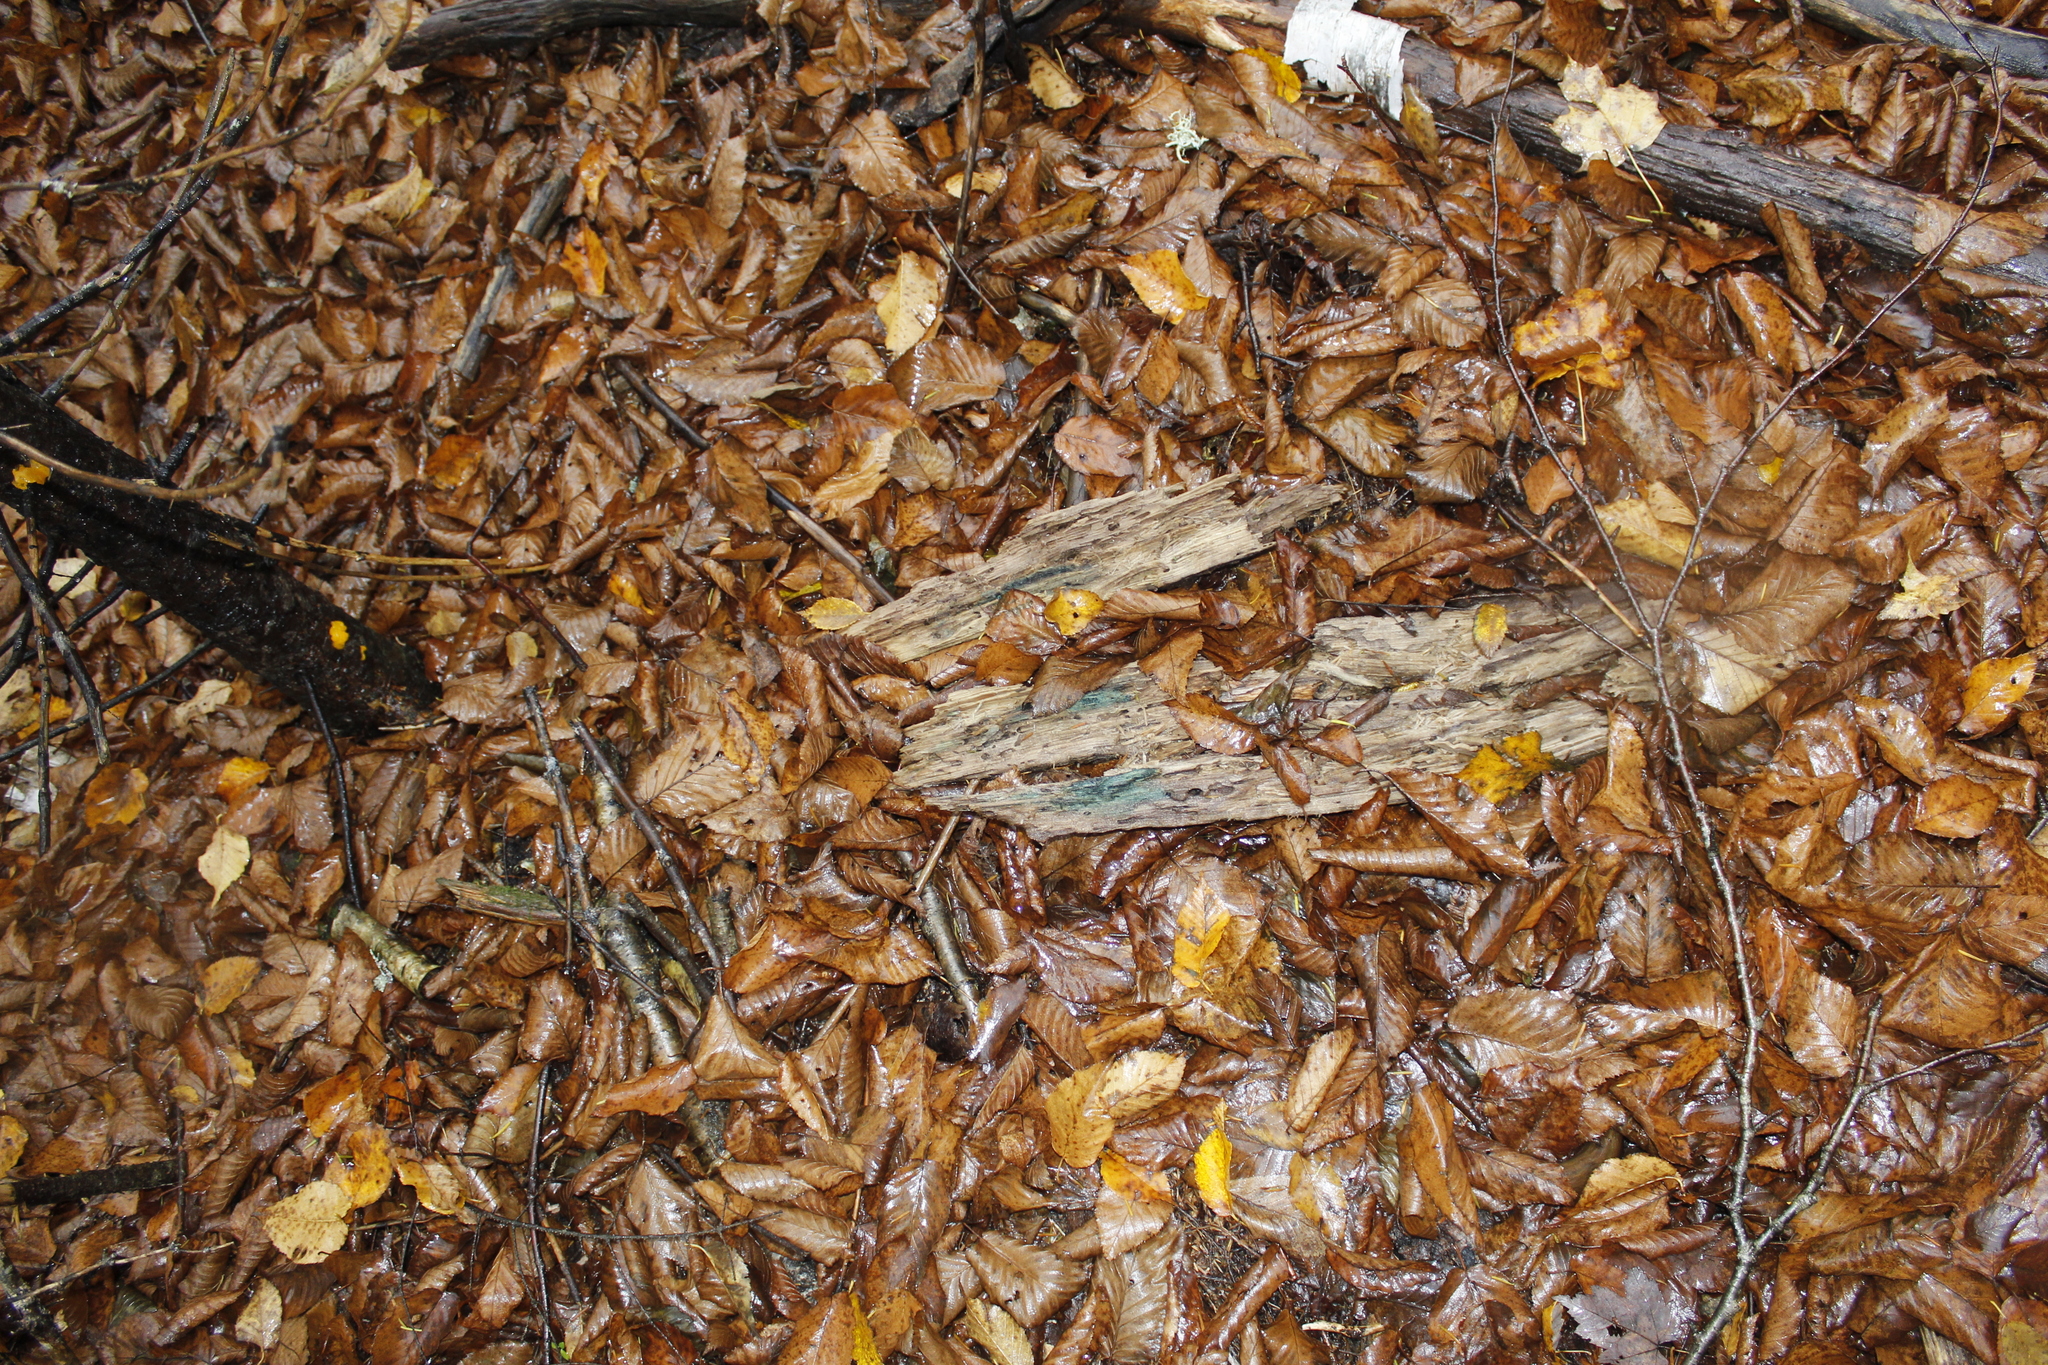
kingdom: Fungi
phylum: Ascomycota
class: Leotiomycetes
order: Helotiales
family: Chlorociboriaceae
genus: Chlorociboria
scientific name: Chlorociboria
